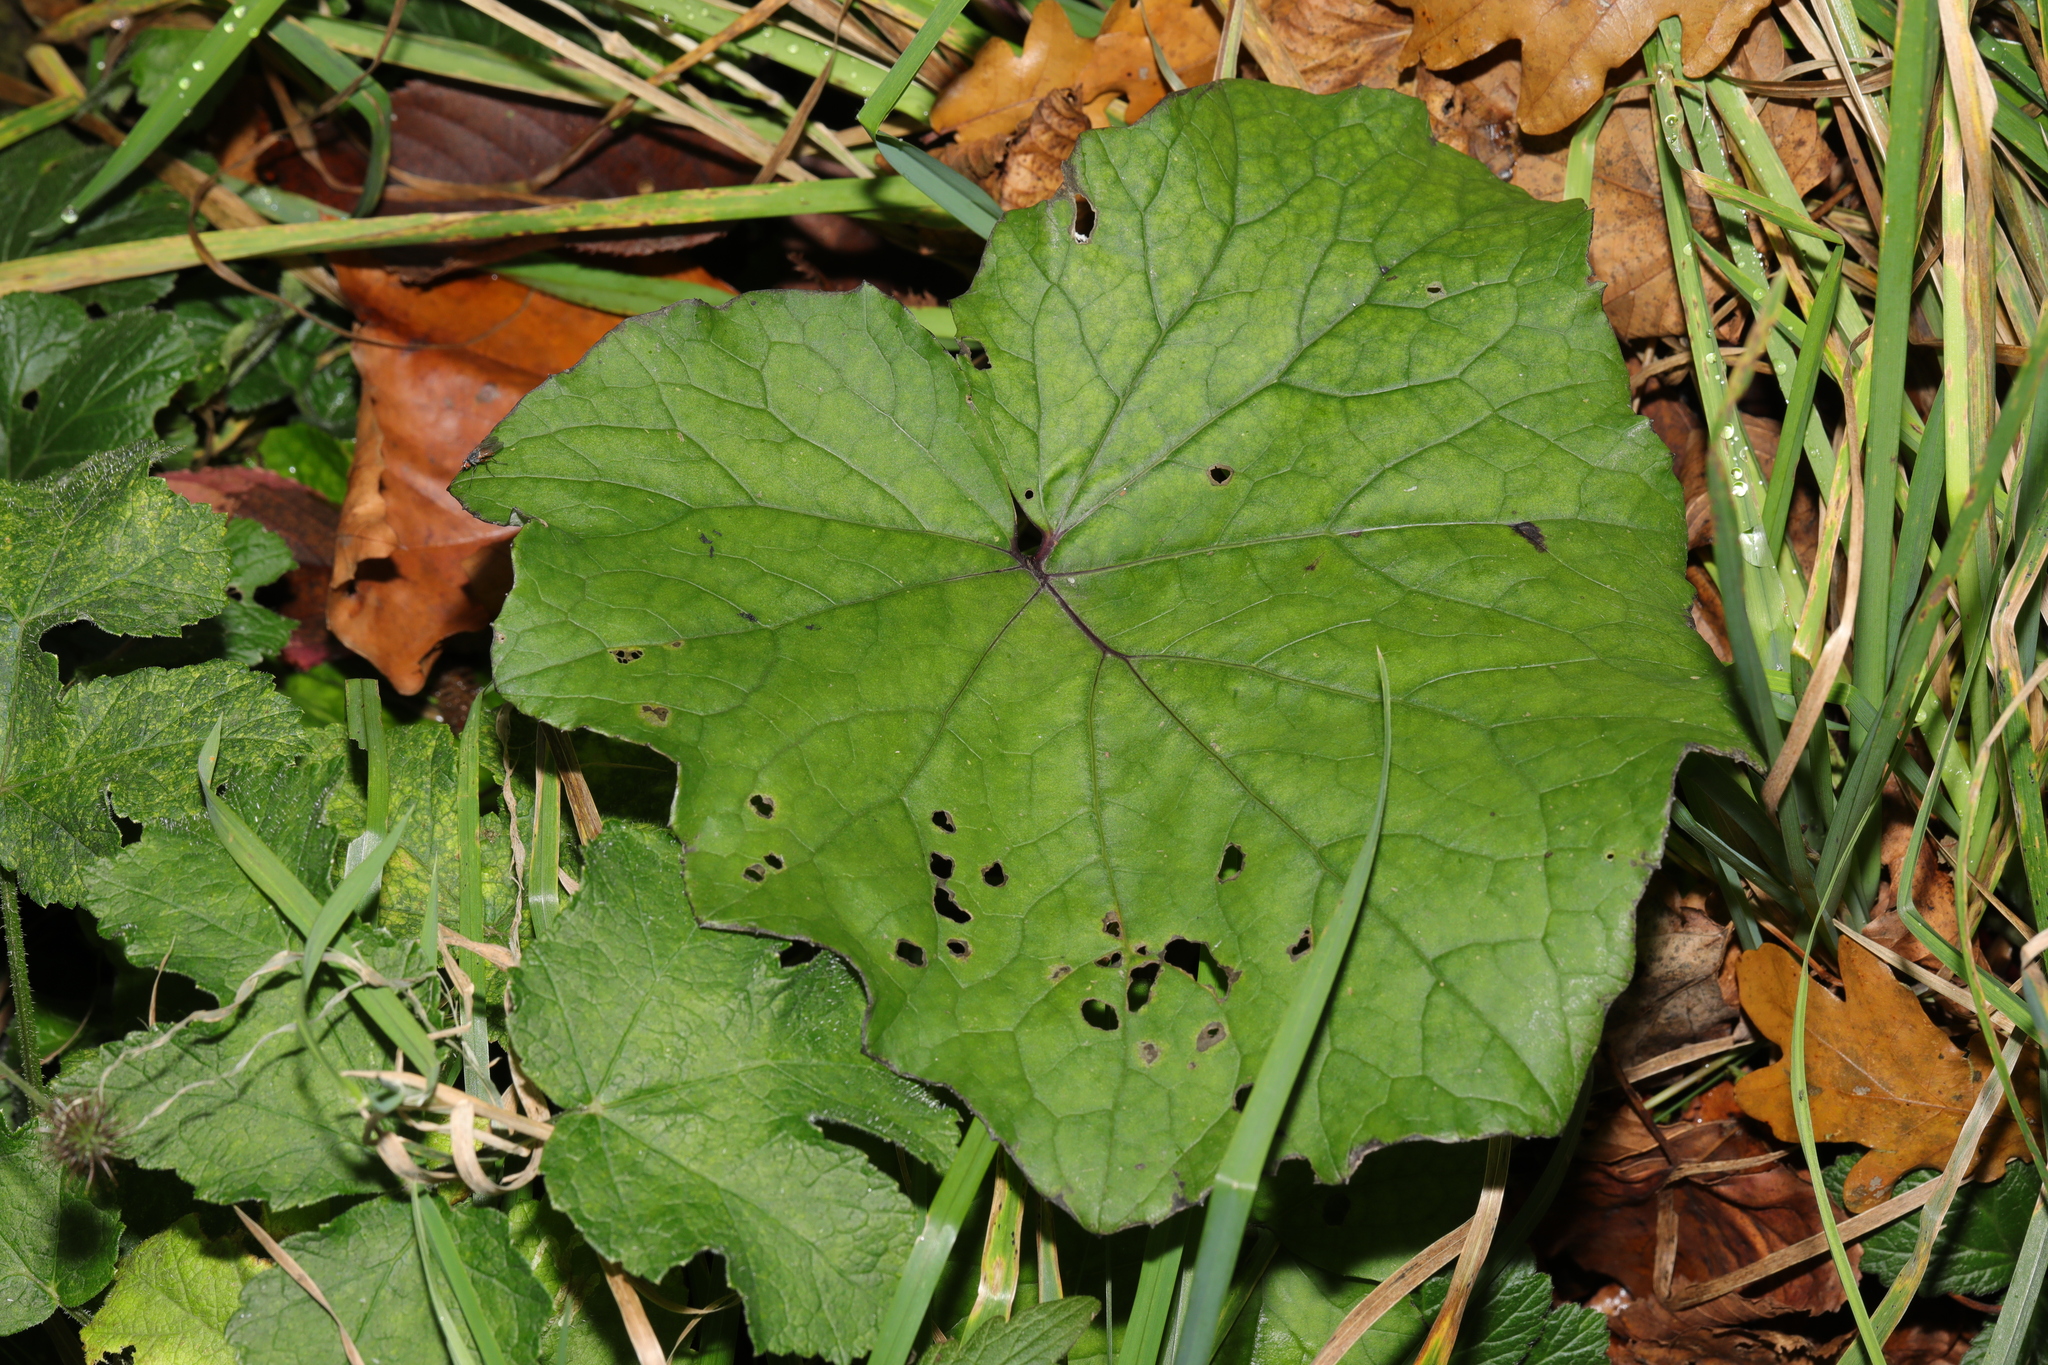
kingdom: Plantae
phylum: Tracheophyta
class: Magnoliopsida
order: Asterales
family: Asteraceae
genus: Tussilago
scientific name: Tussilago farfara
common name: Coltsfoot
